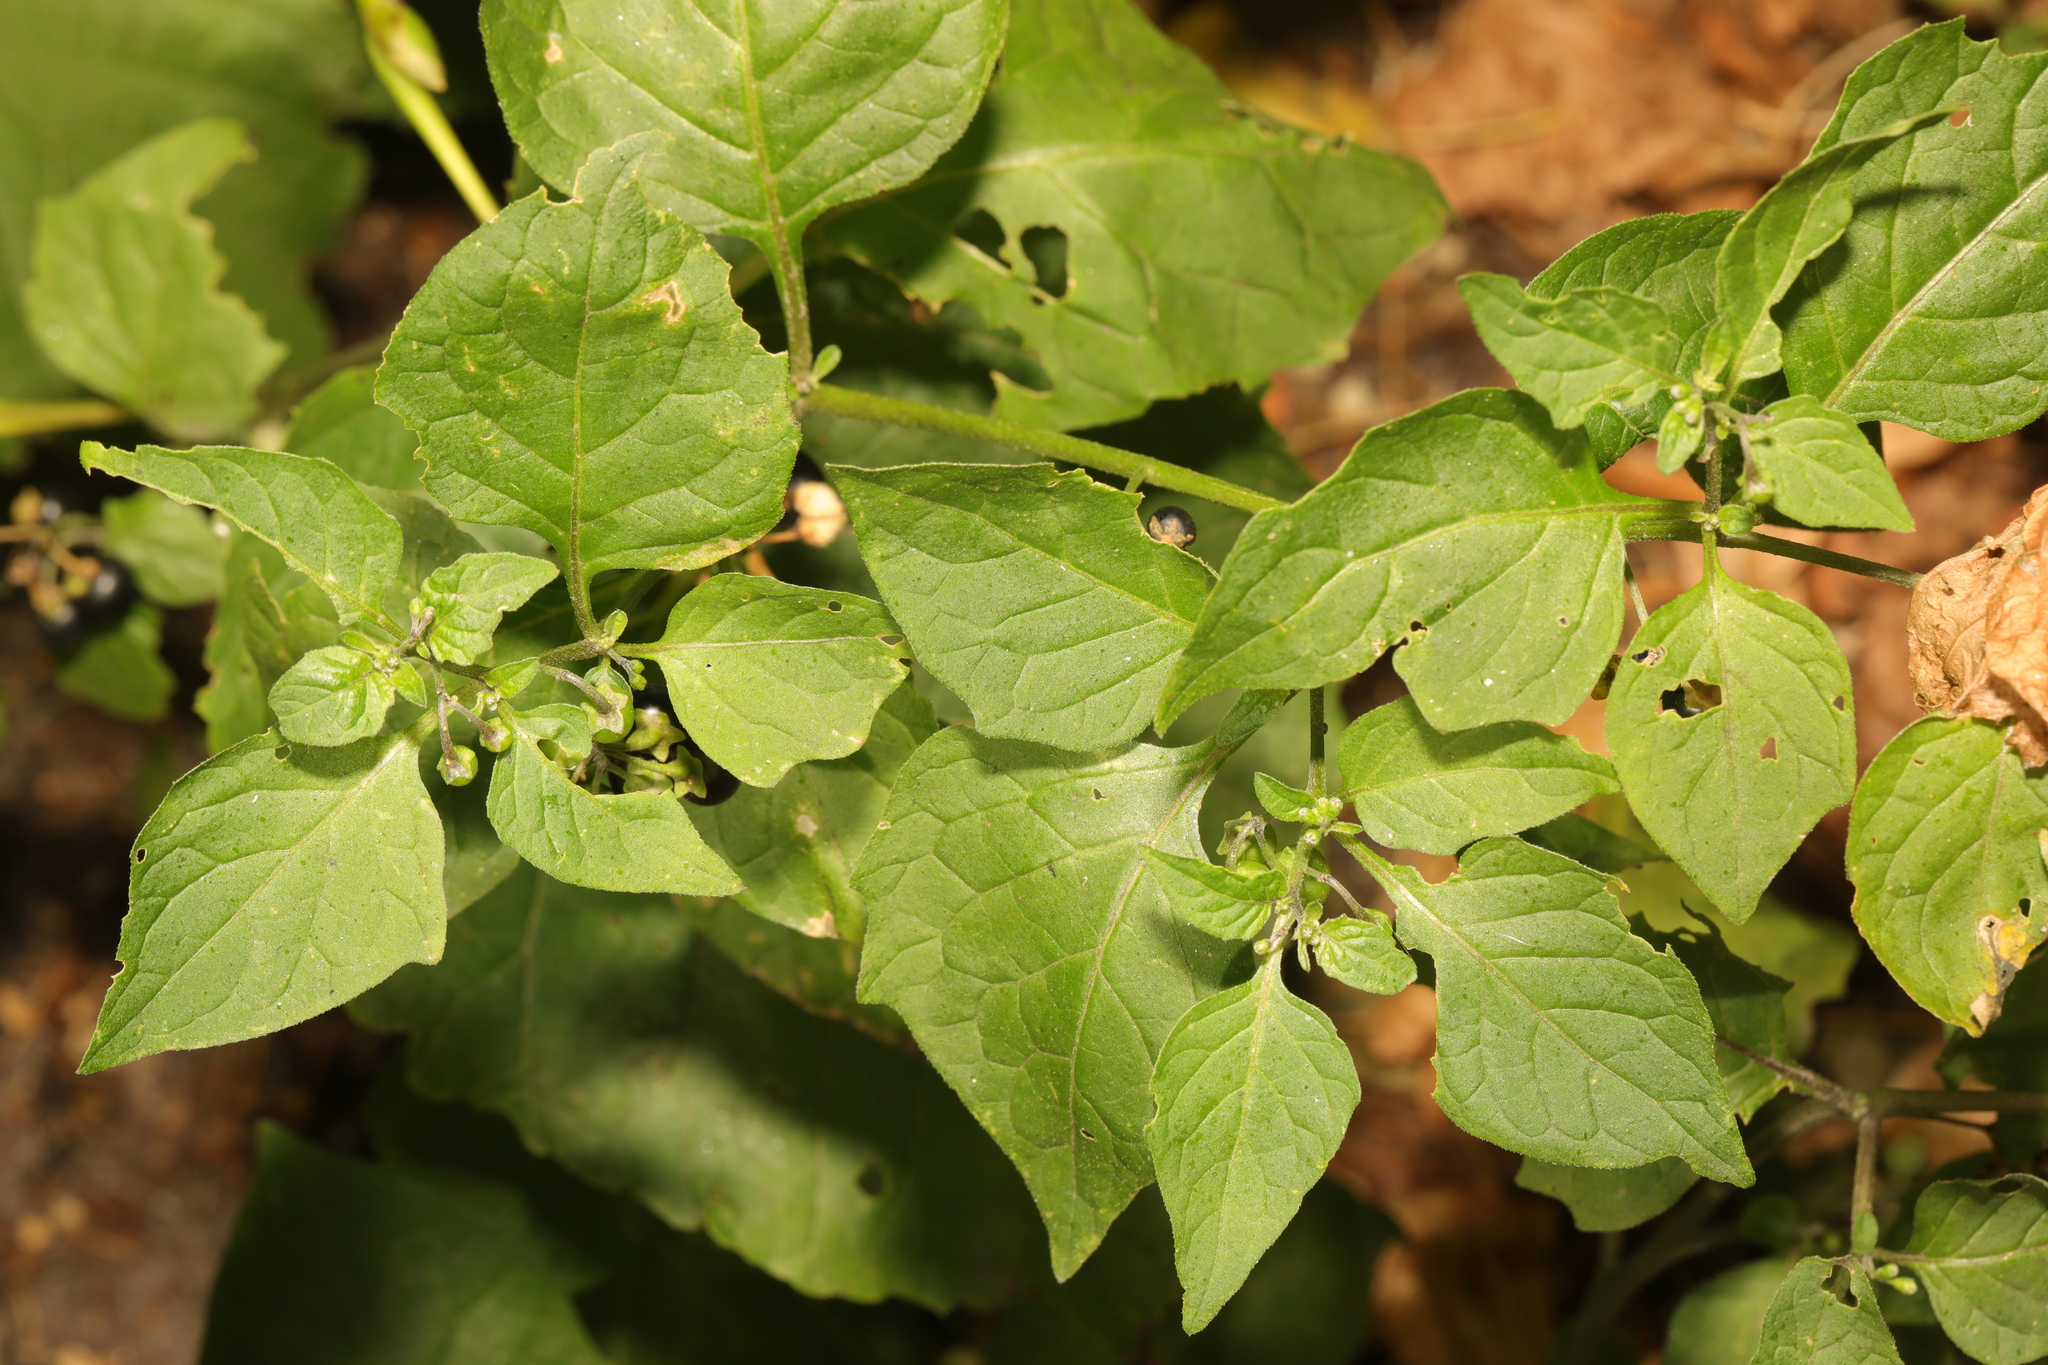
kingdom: Plantae
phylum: Tracheophyta
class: Magnoliopsida
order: Solanales
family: Solanaceae
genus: Solanum
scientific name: Solanum nigrum
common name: Black nightshade
